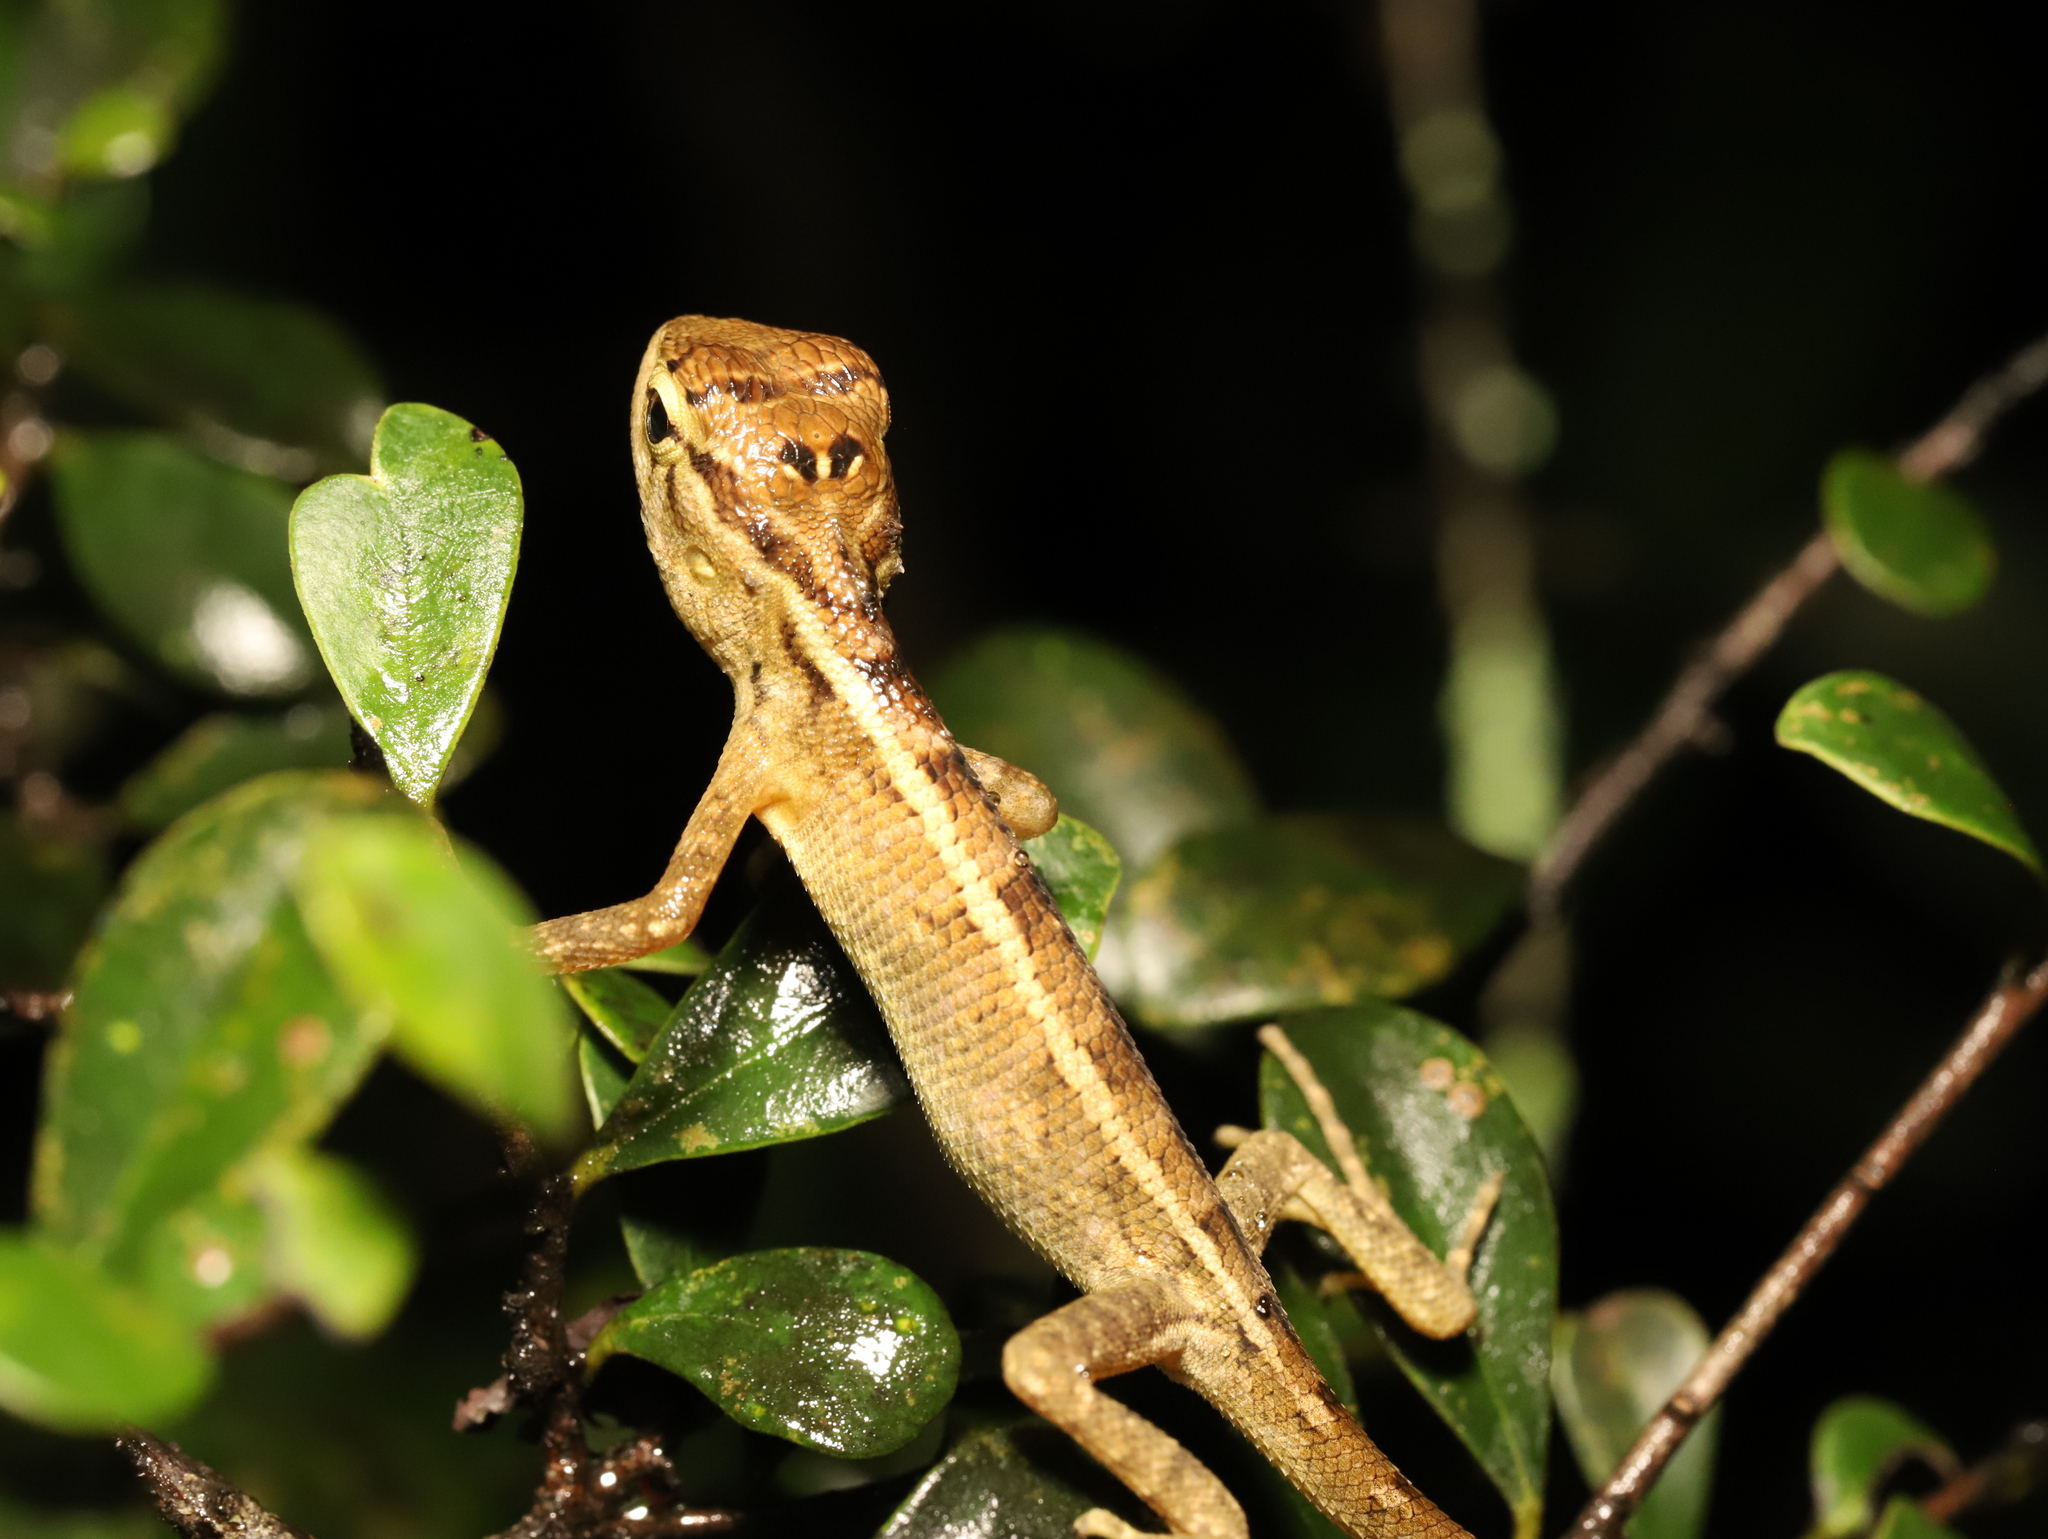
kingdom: Animalia
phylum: Chordata
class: Squamata
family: Agamidae
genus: Calotes
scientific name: Calotes versicolor
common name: Oriental garden lizard
